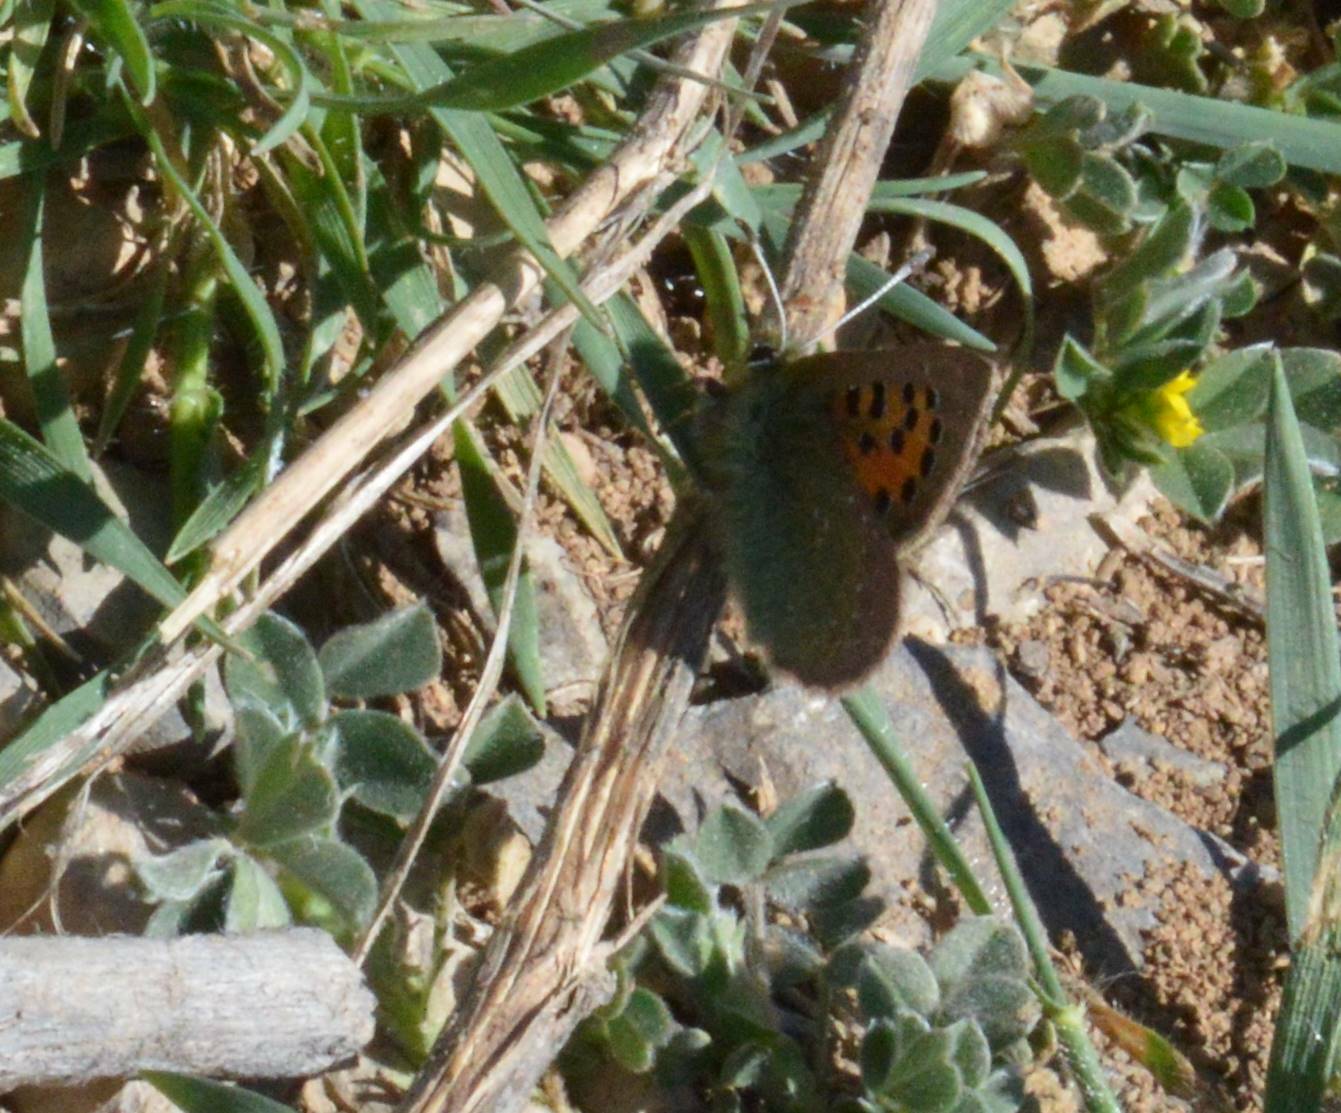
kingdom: Animalia
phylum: Arthropoda
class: Insecta
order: Lepidoptera
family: Lycaenidae
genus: Tomares
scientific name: Tomares ballus
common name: Provence hairstreak
